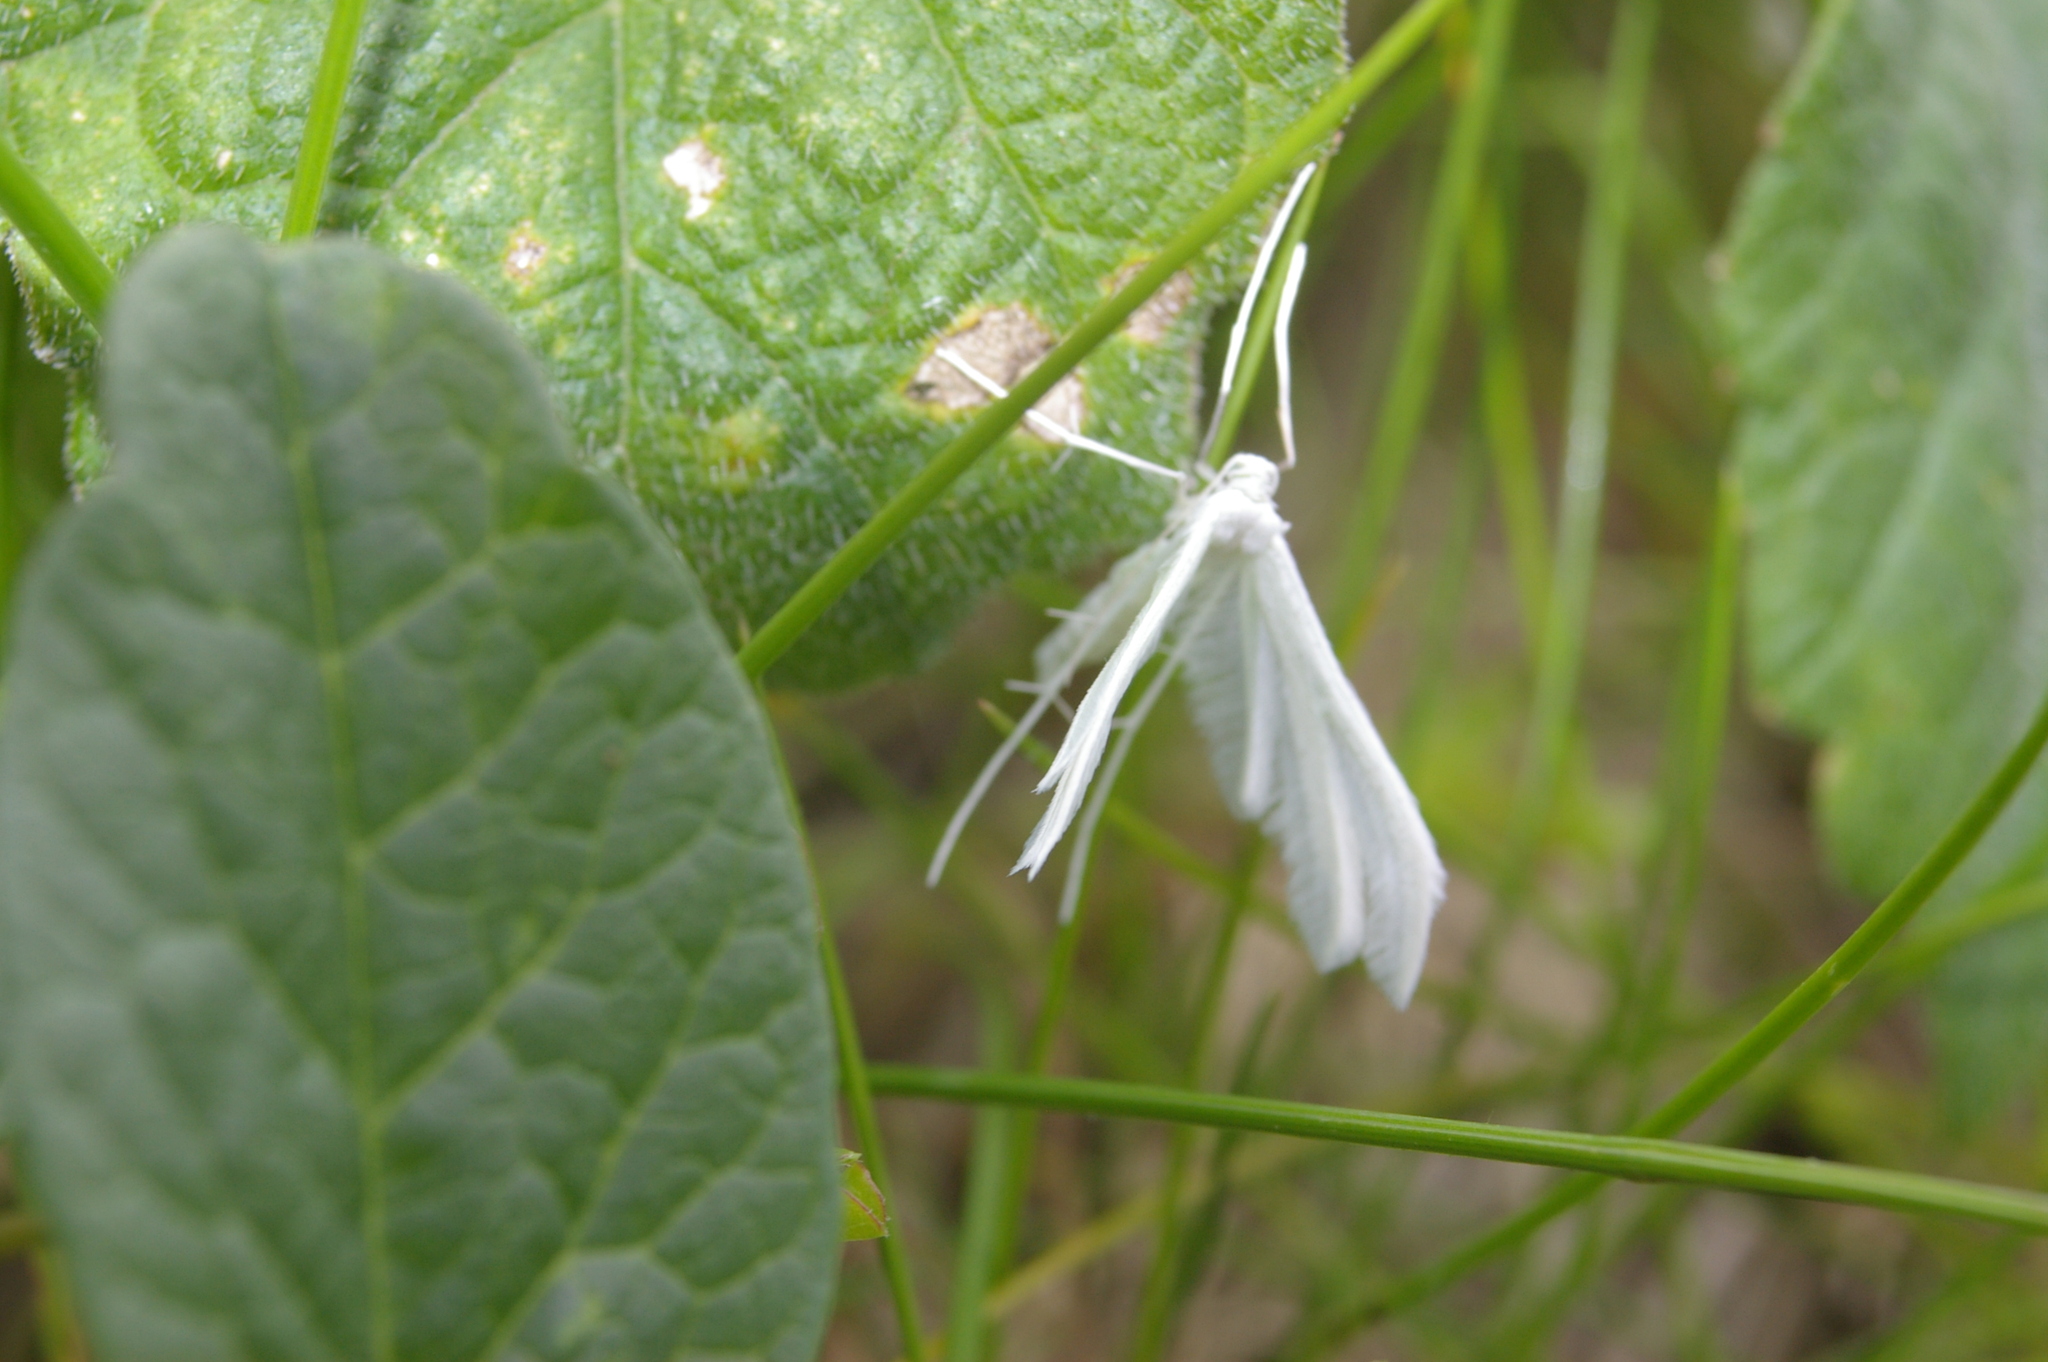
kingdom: Animalia
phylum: Arthropoda
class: Insecta
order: Lepidoptera
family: Pterophoridae
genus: Pterophorus
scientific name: Pterophorus pentadactyla
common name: White plume moth
